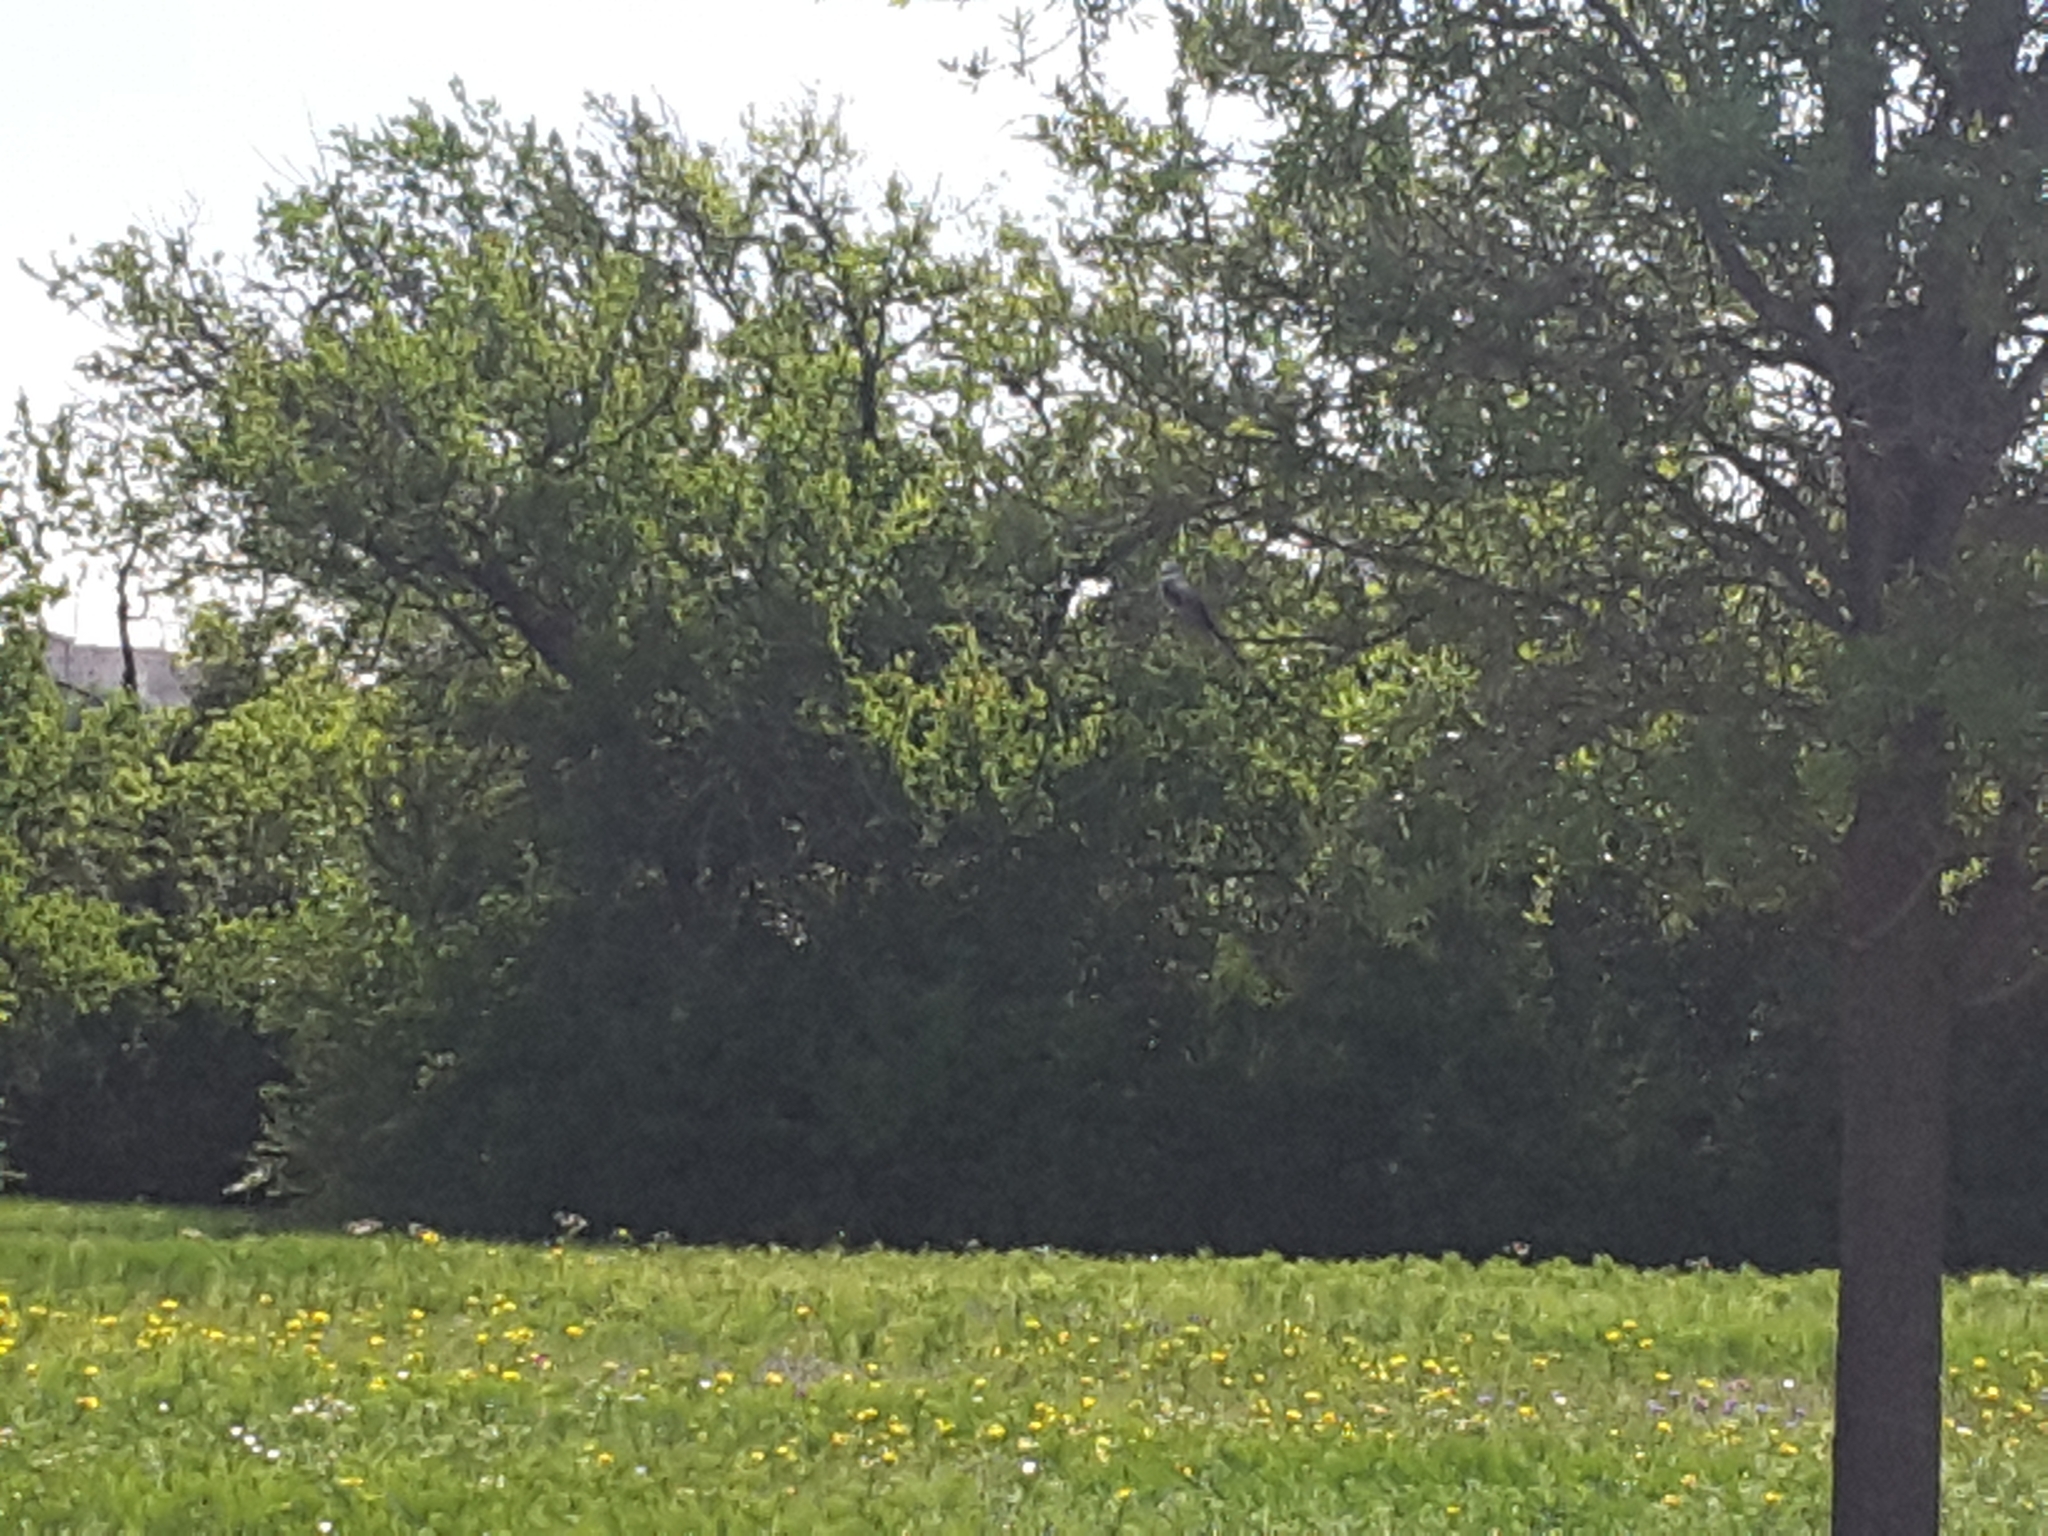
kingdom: Animalia
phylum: Chordata
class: Aves
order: Passeriformes
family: Tyrannidae
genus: Tyrannus
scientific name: Tyrannus forficatus
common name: Scissor-tailed flycatcher
